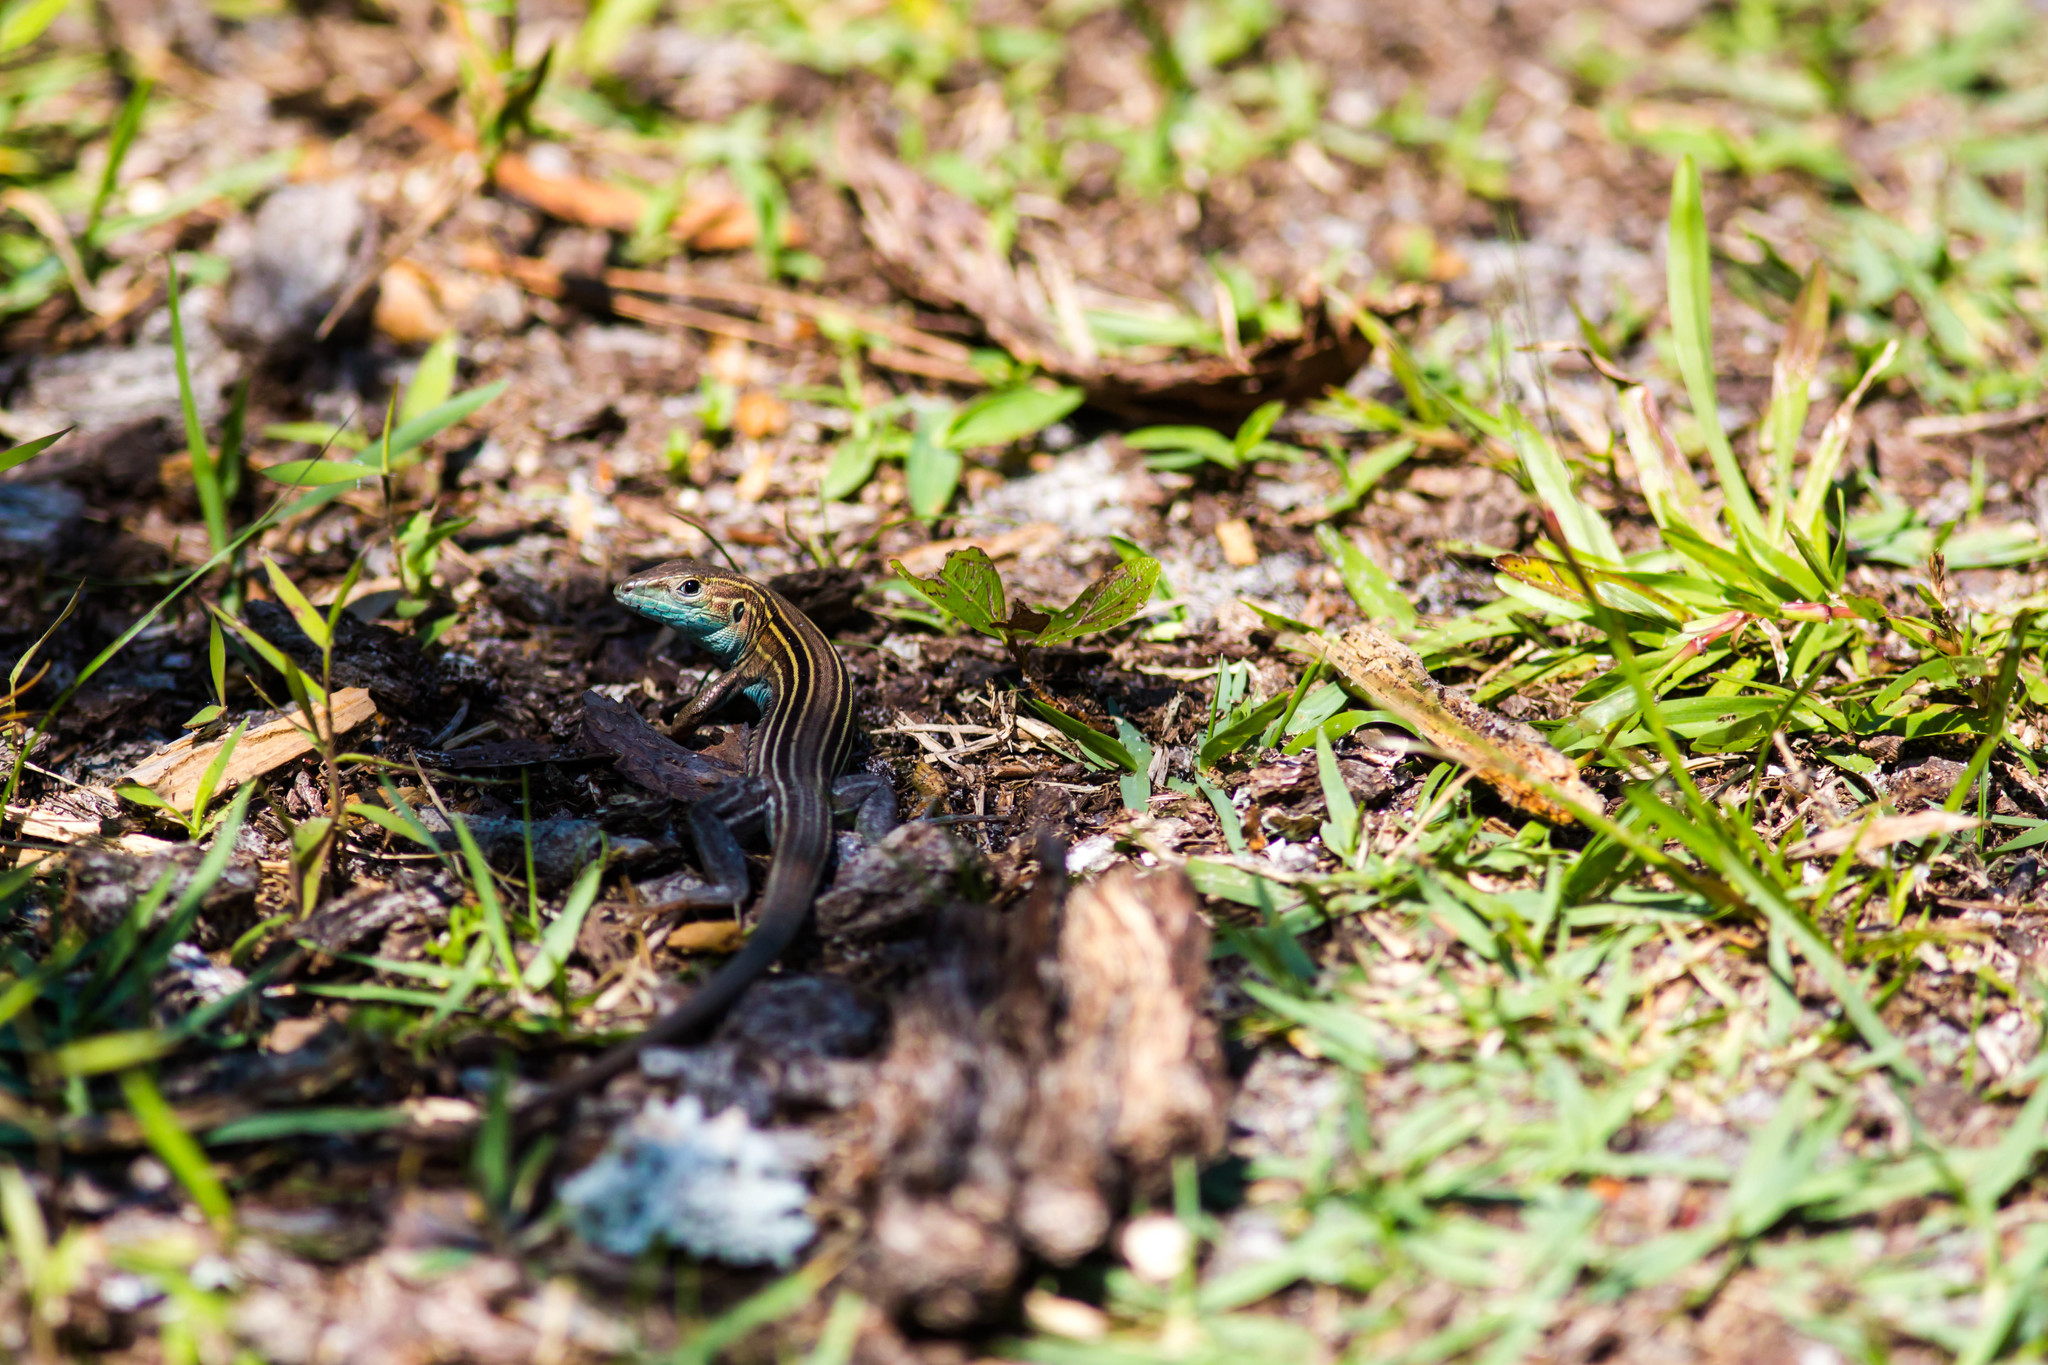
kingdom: Animalia
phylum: Chordata
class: Squamata
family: Teiidae
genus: Aspidoscelis
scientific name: Aspidoscelis sexlineatus
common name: Six-lined racerunner
